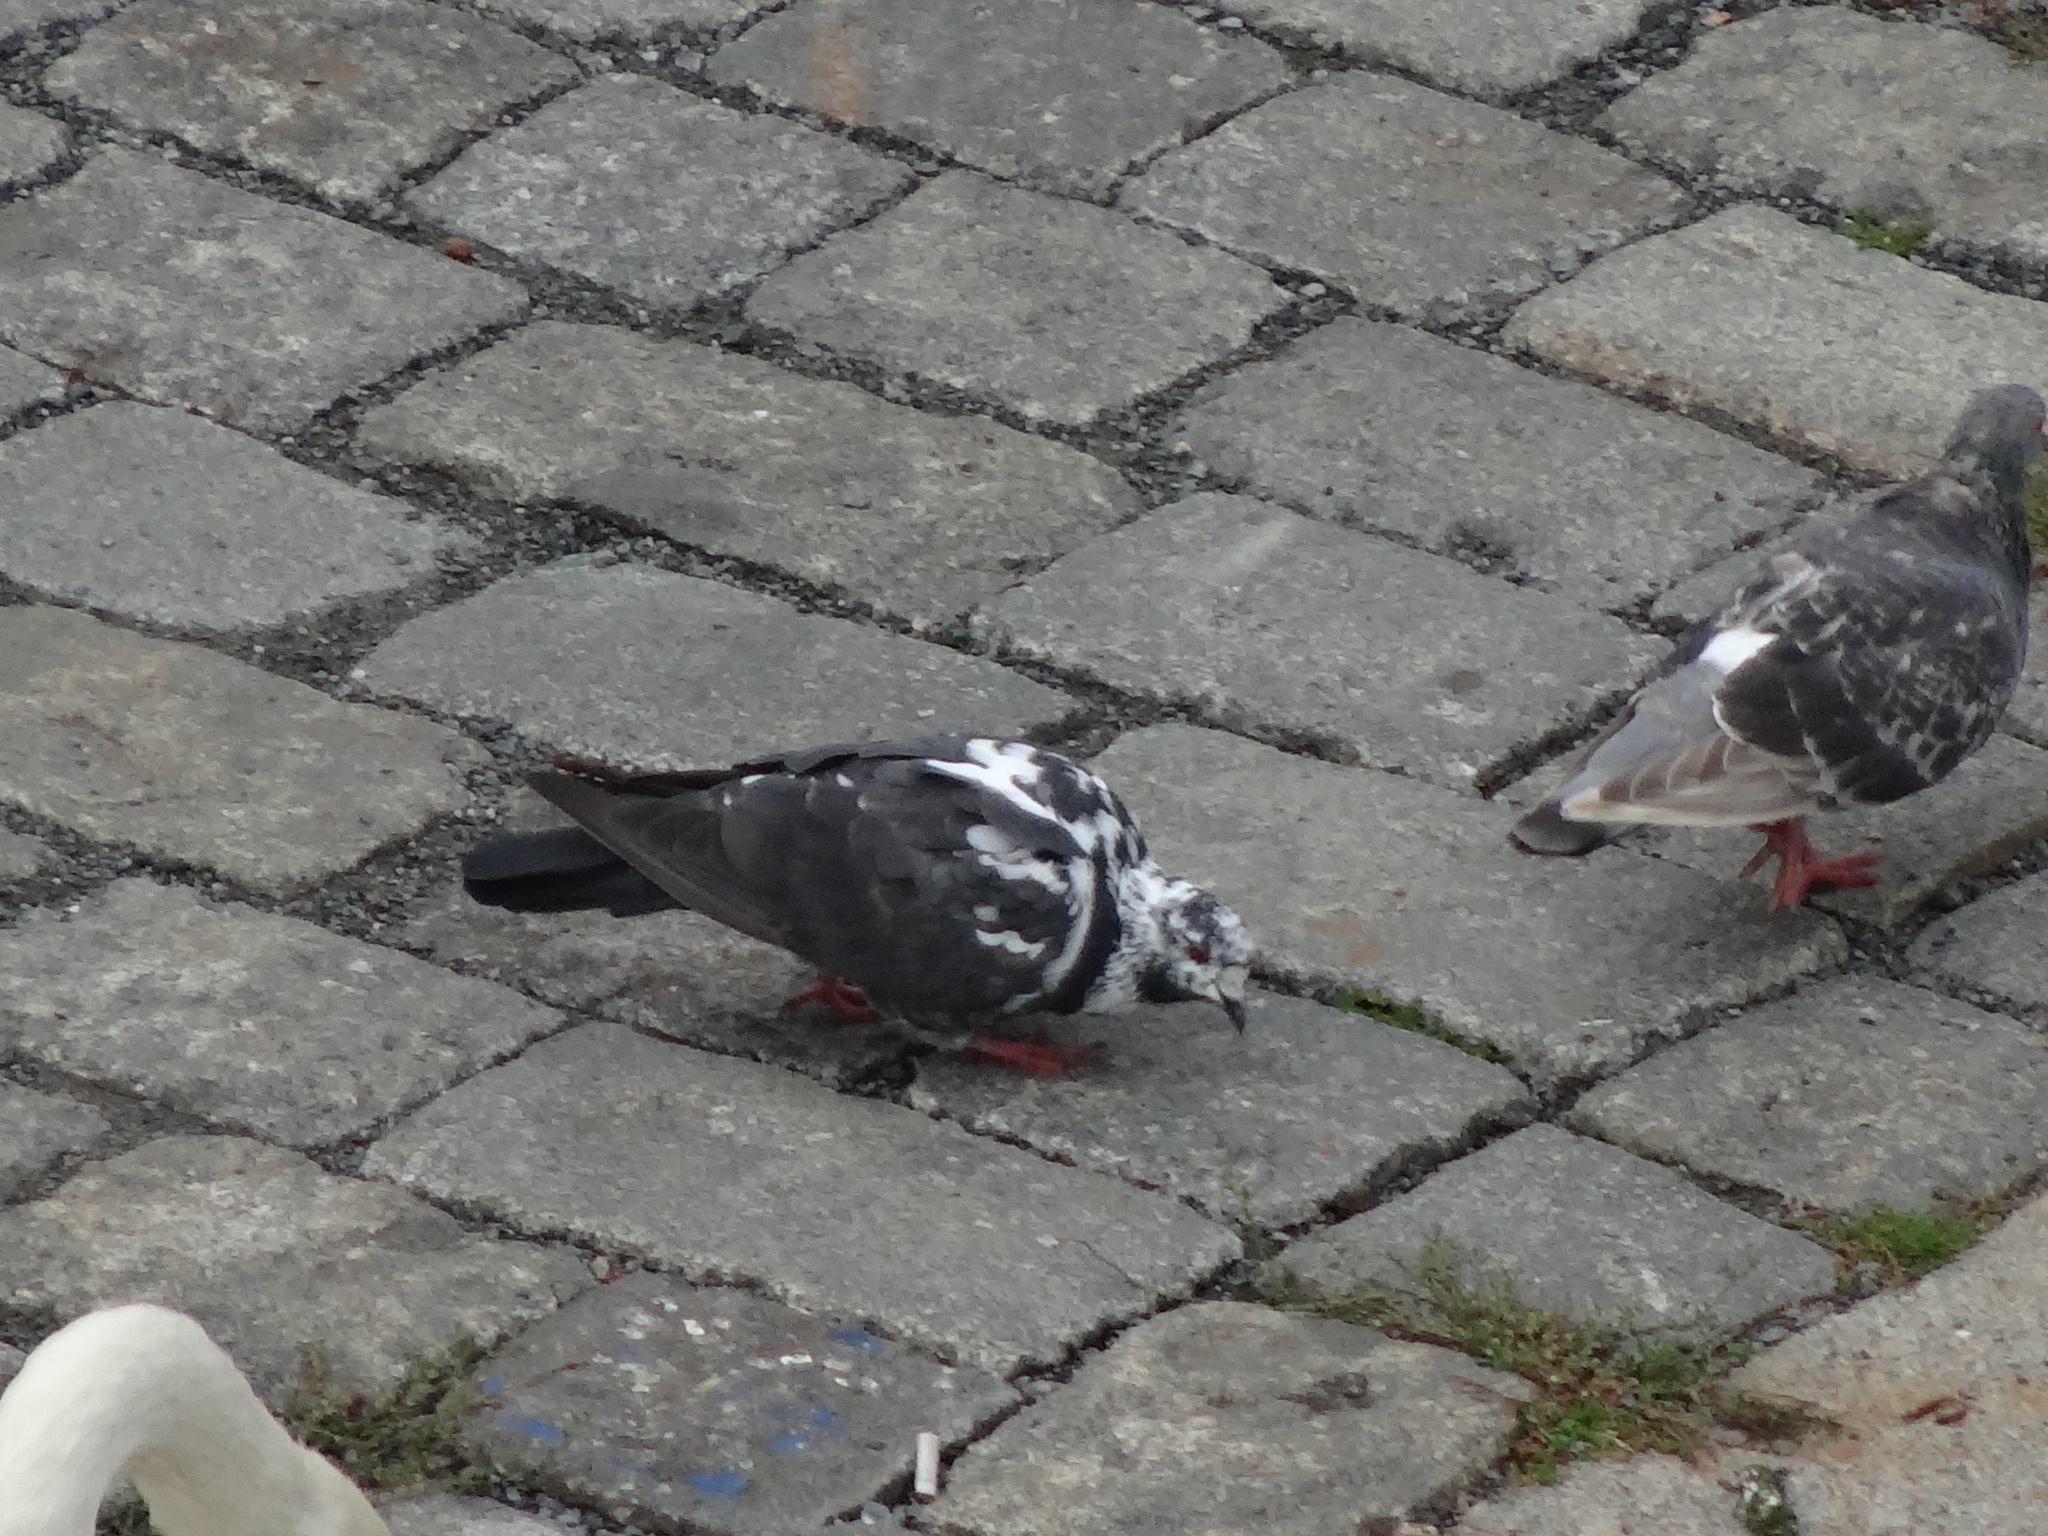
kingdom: Animalia
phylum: Chordata
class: Aves
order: Columbiformes
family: Columbidae
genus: Columba
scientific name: Columba livia
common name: Rock pigeon
